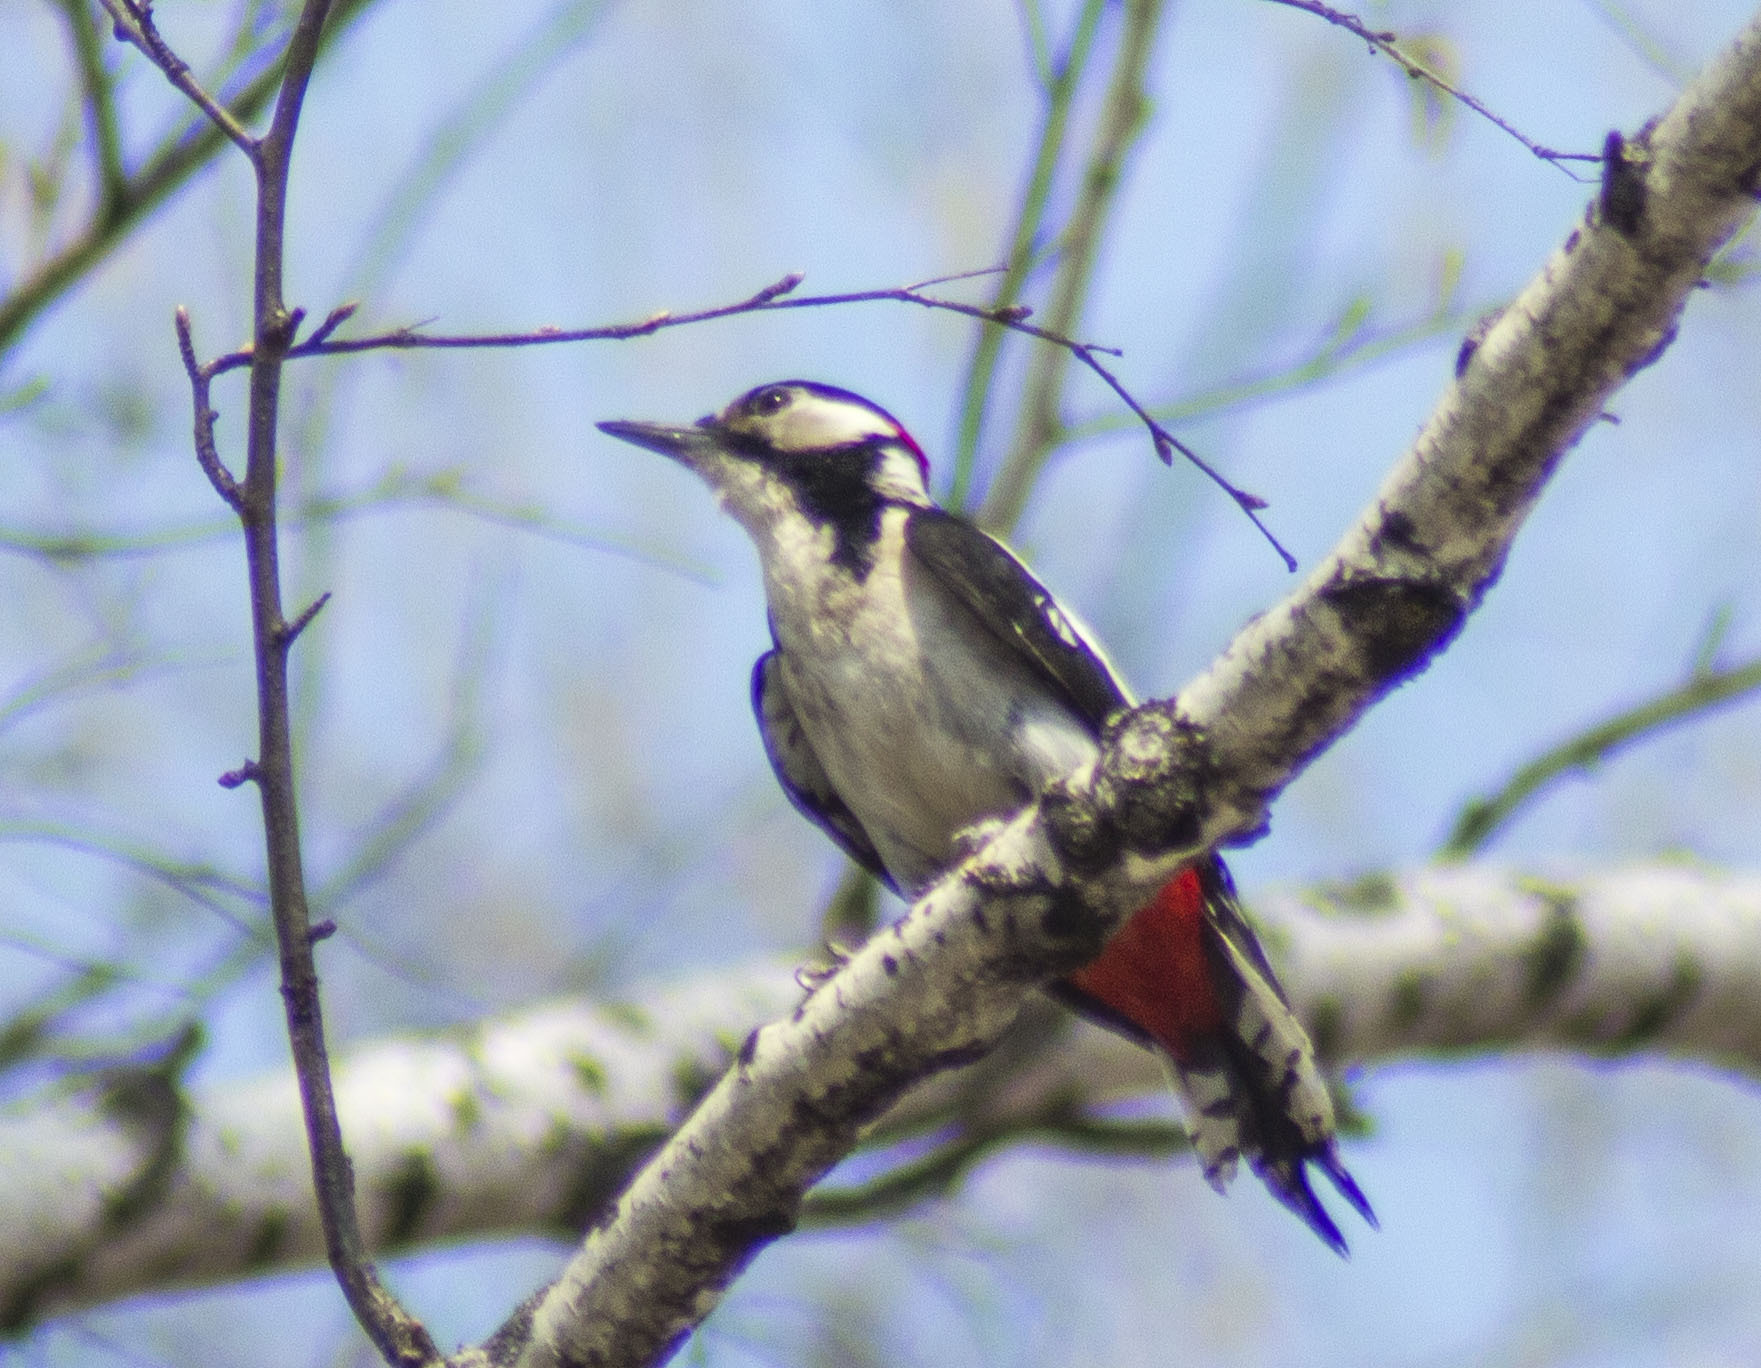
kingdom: Animalia
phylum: Chordata
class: Aves
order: Piciformes
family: Picidae
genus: Dendrocopos
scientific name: Dendrocopos major
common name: Great spotted woodpecker
